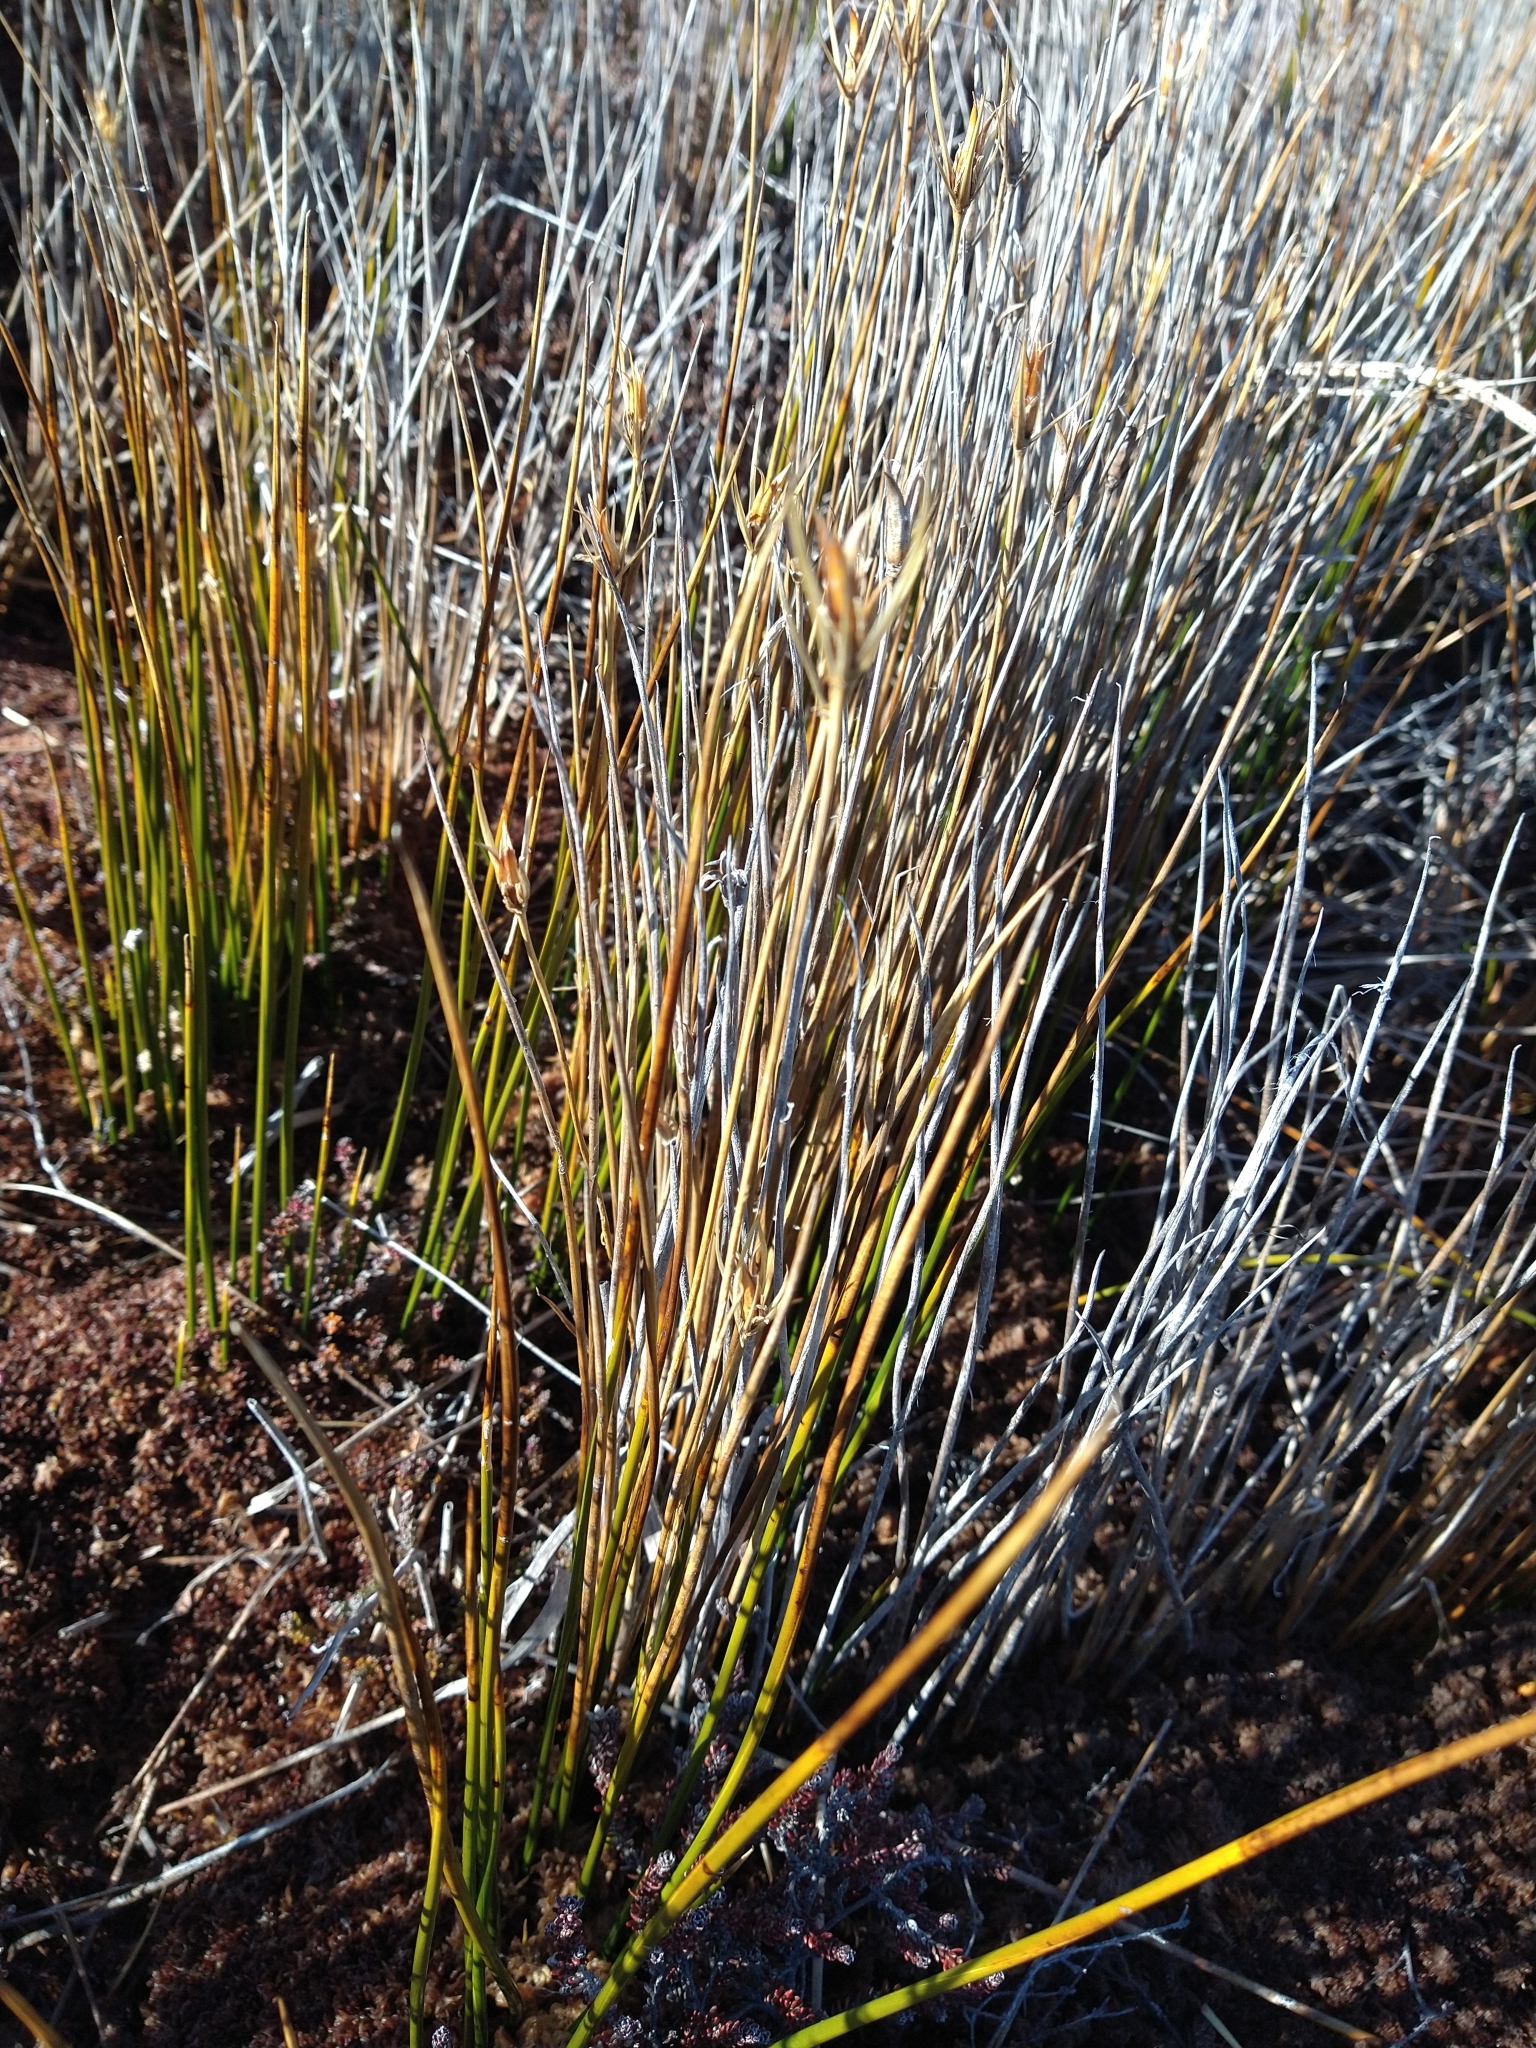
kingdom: Plantae
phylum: Tracheophyta
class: Liliopsida
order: Poales
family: Juncaceae
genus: Marsippospermum
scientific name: Marsippospermum grandiflorum
